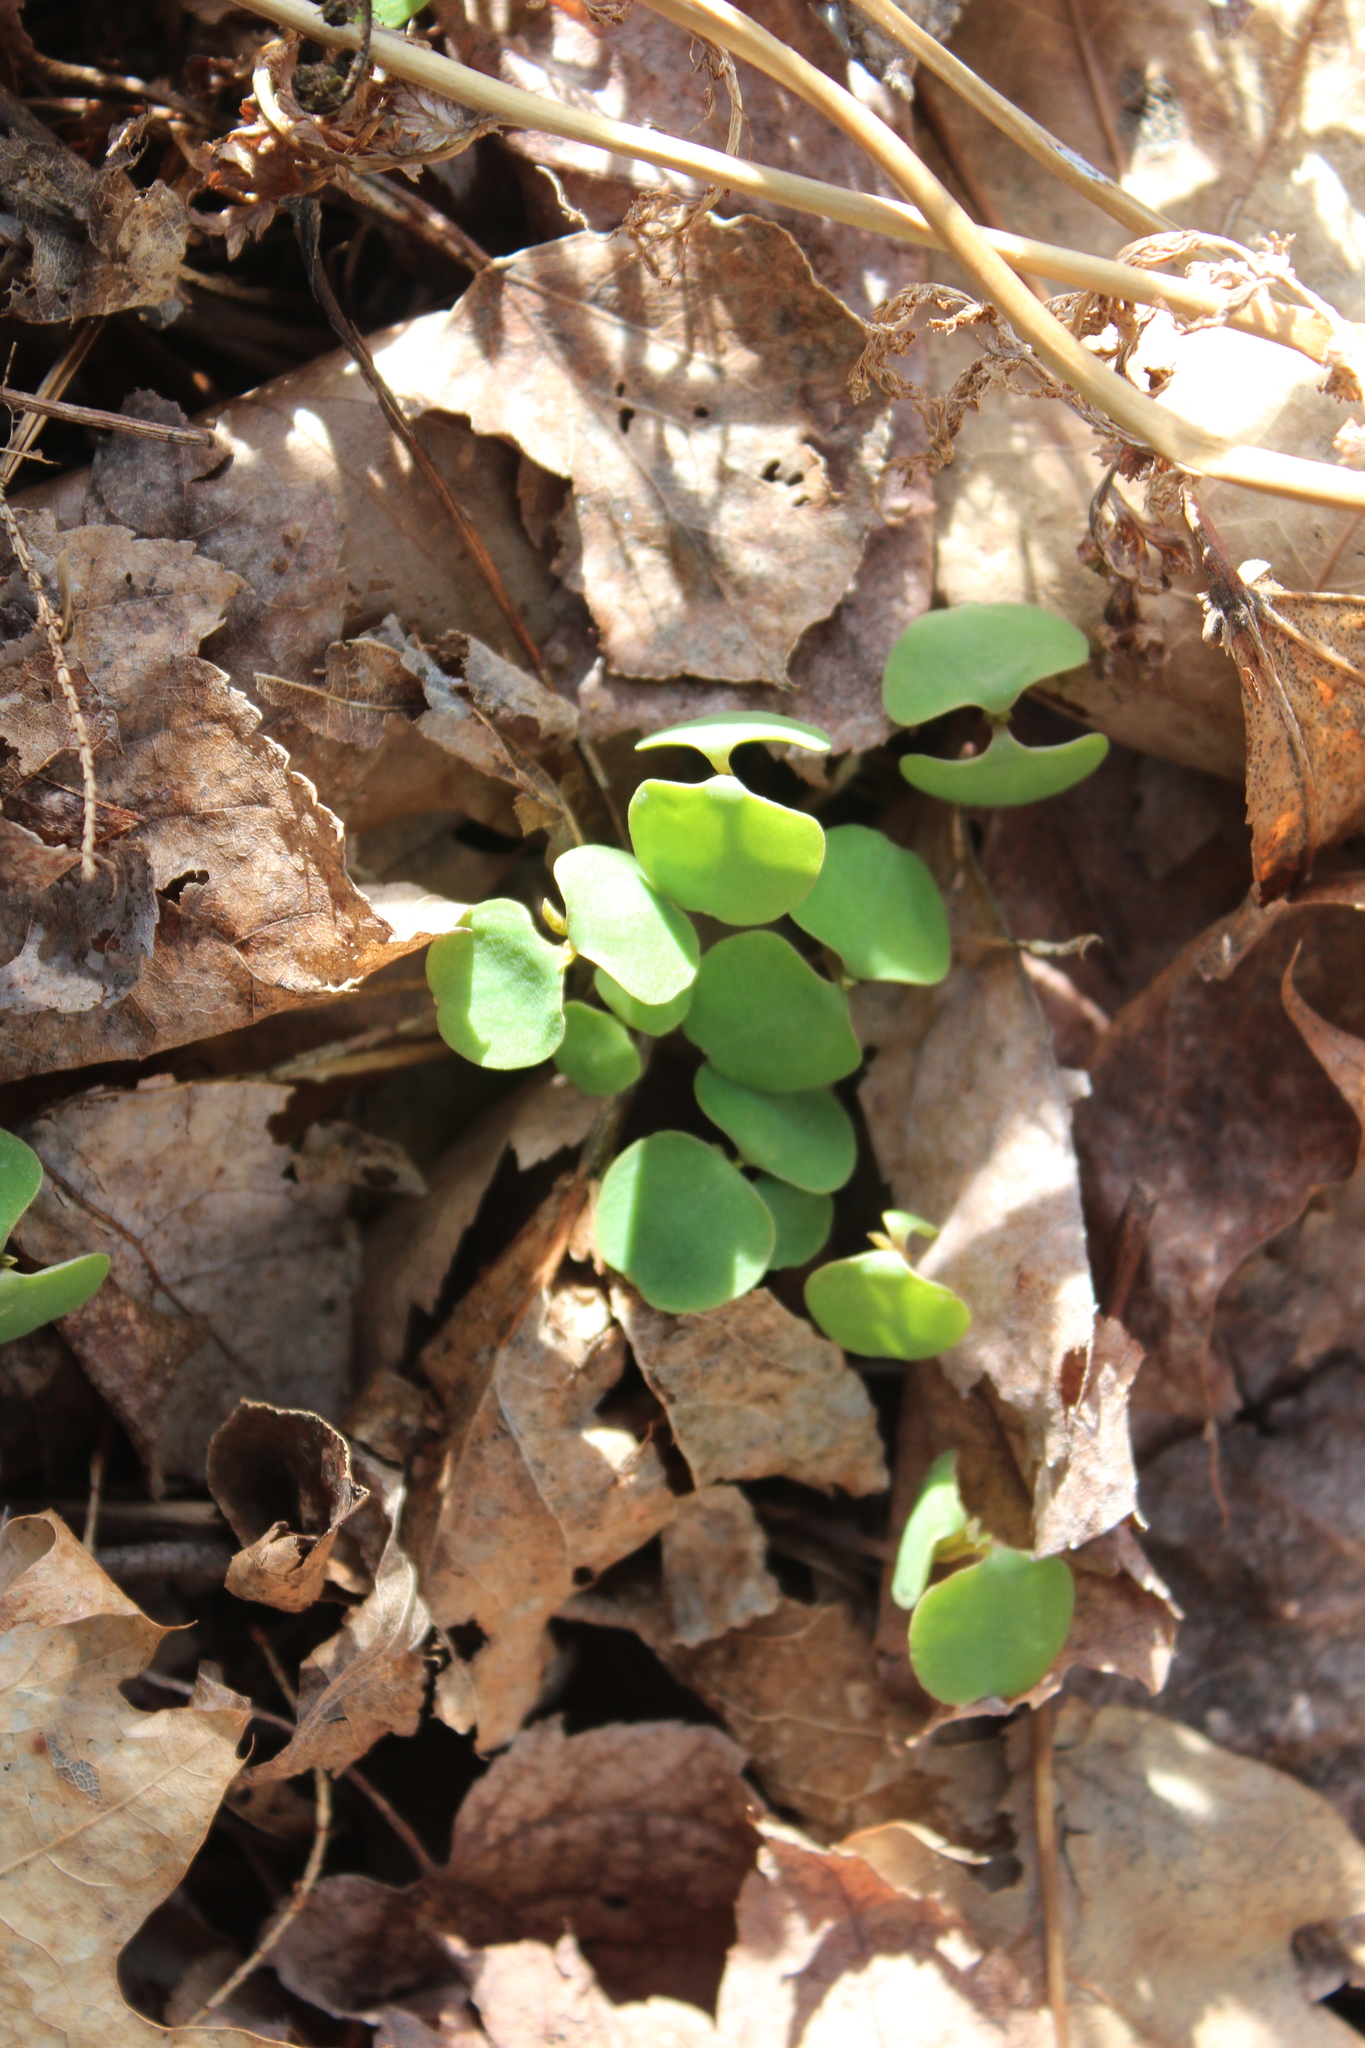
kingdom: Plantae
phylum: Tracheophyta
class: Magnoliopsida
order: Ericales
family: Balsaminaceae
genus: Impatiens
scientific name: Impatiens
